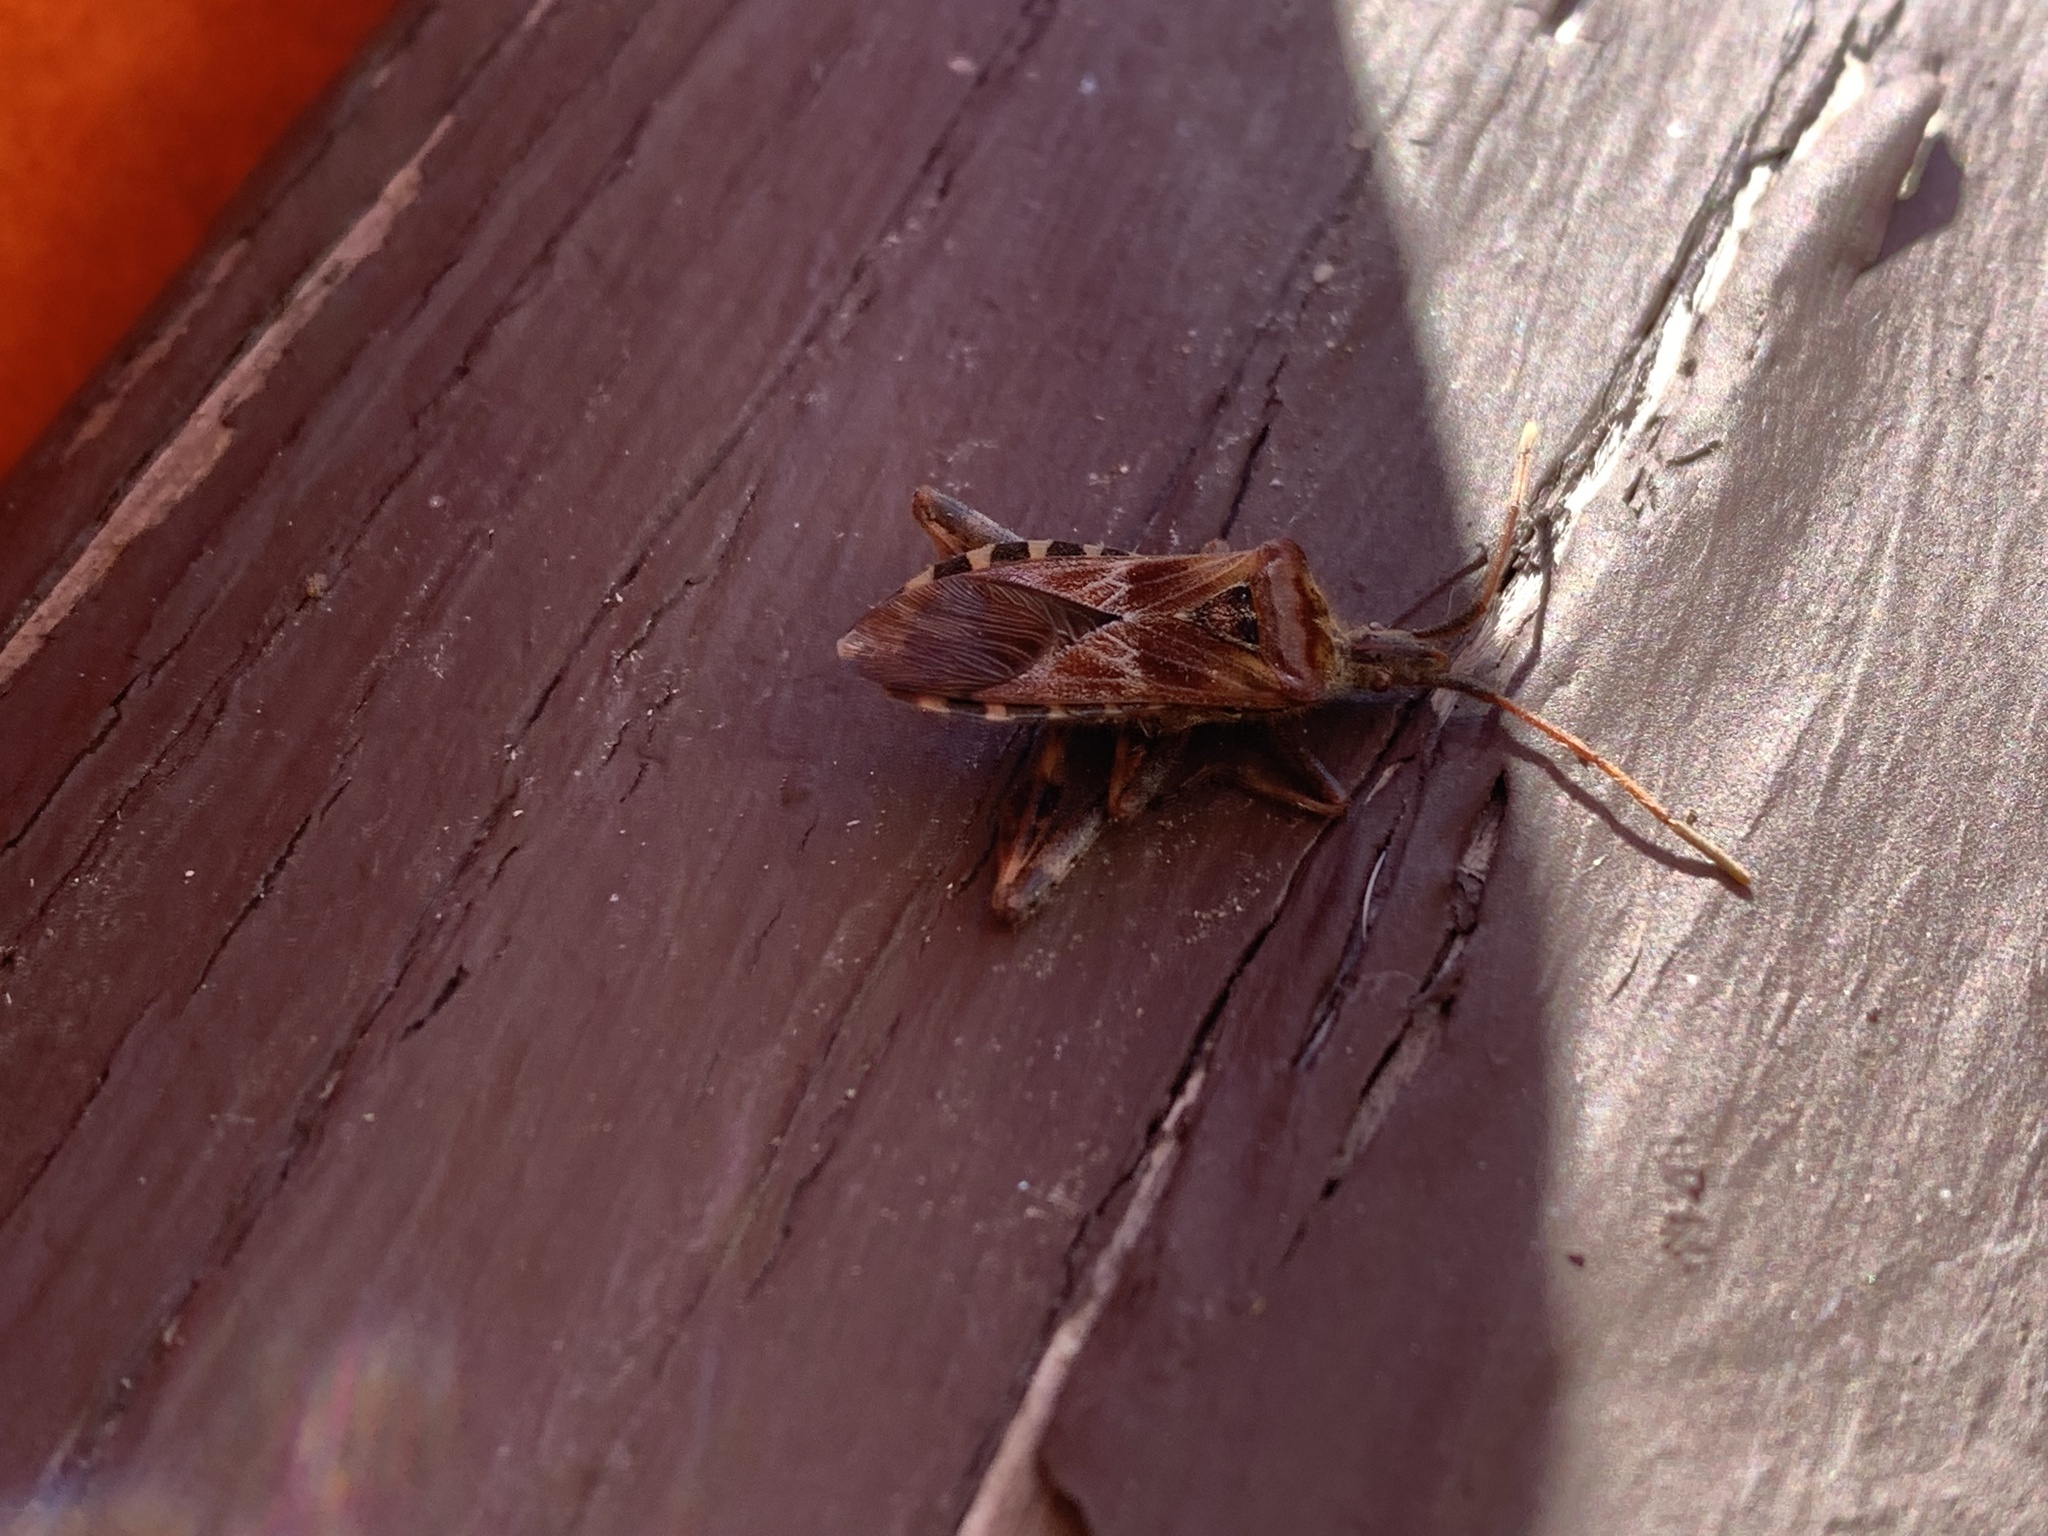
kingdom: Animalia
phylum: Arthropoda
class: Insecta
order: Hemiptera
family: Coreidae
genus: Leptoglossus
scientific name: Leptoglossus occidentalis
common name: Western conifer-seed bug
